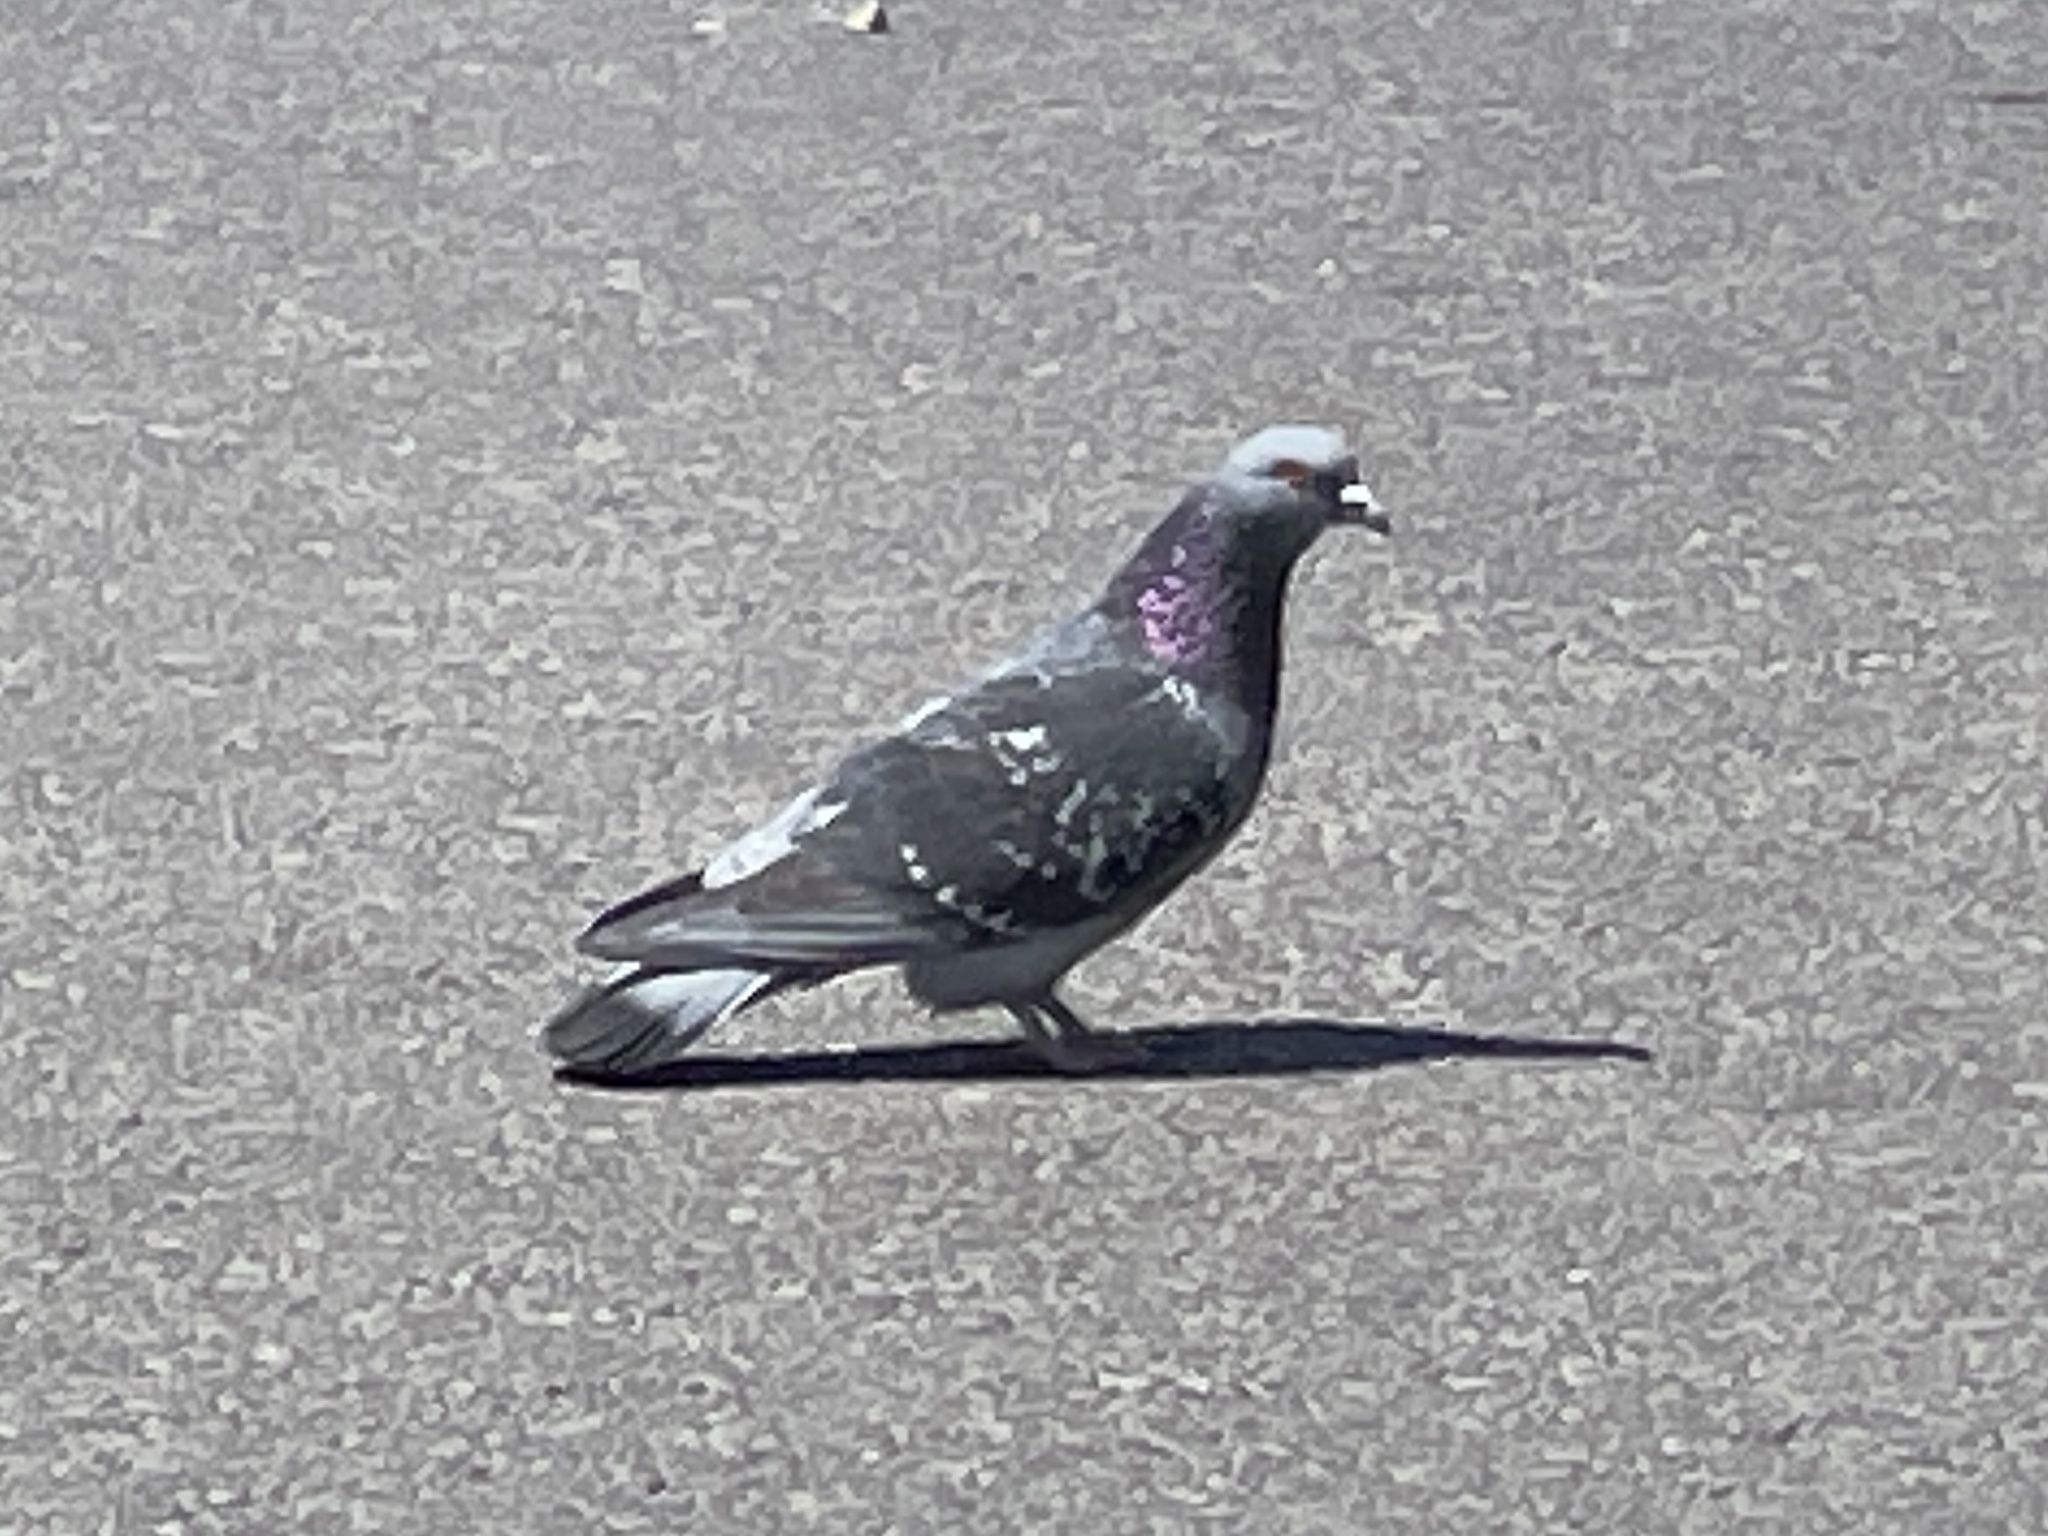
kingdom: Animalia
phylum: Chordata
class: Aves
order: Columbiformes
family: Columbidae
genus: Columba
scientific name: Columba livia
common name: Rock pigeon
